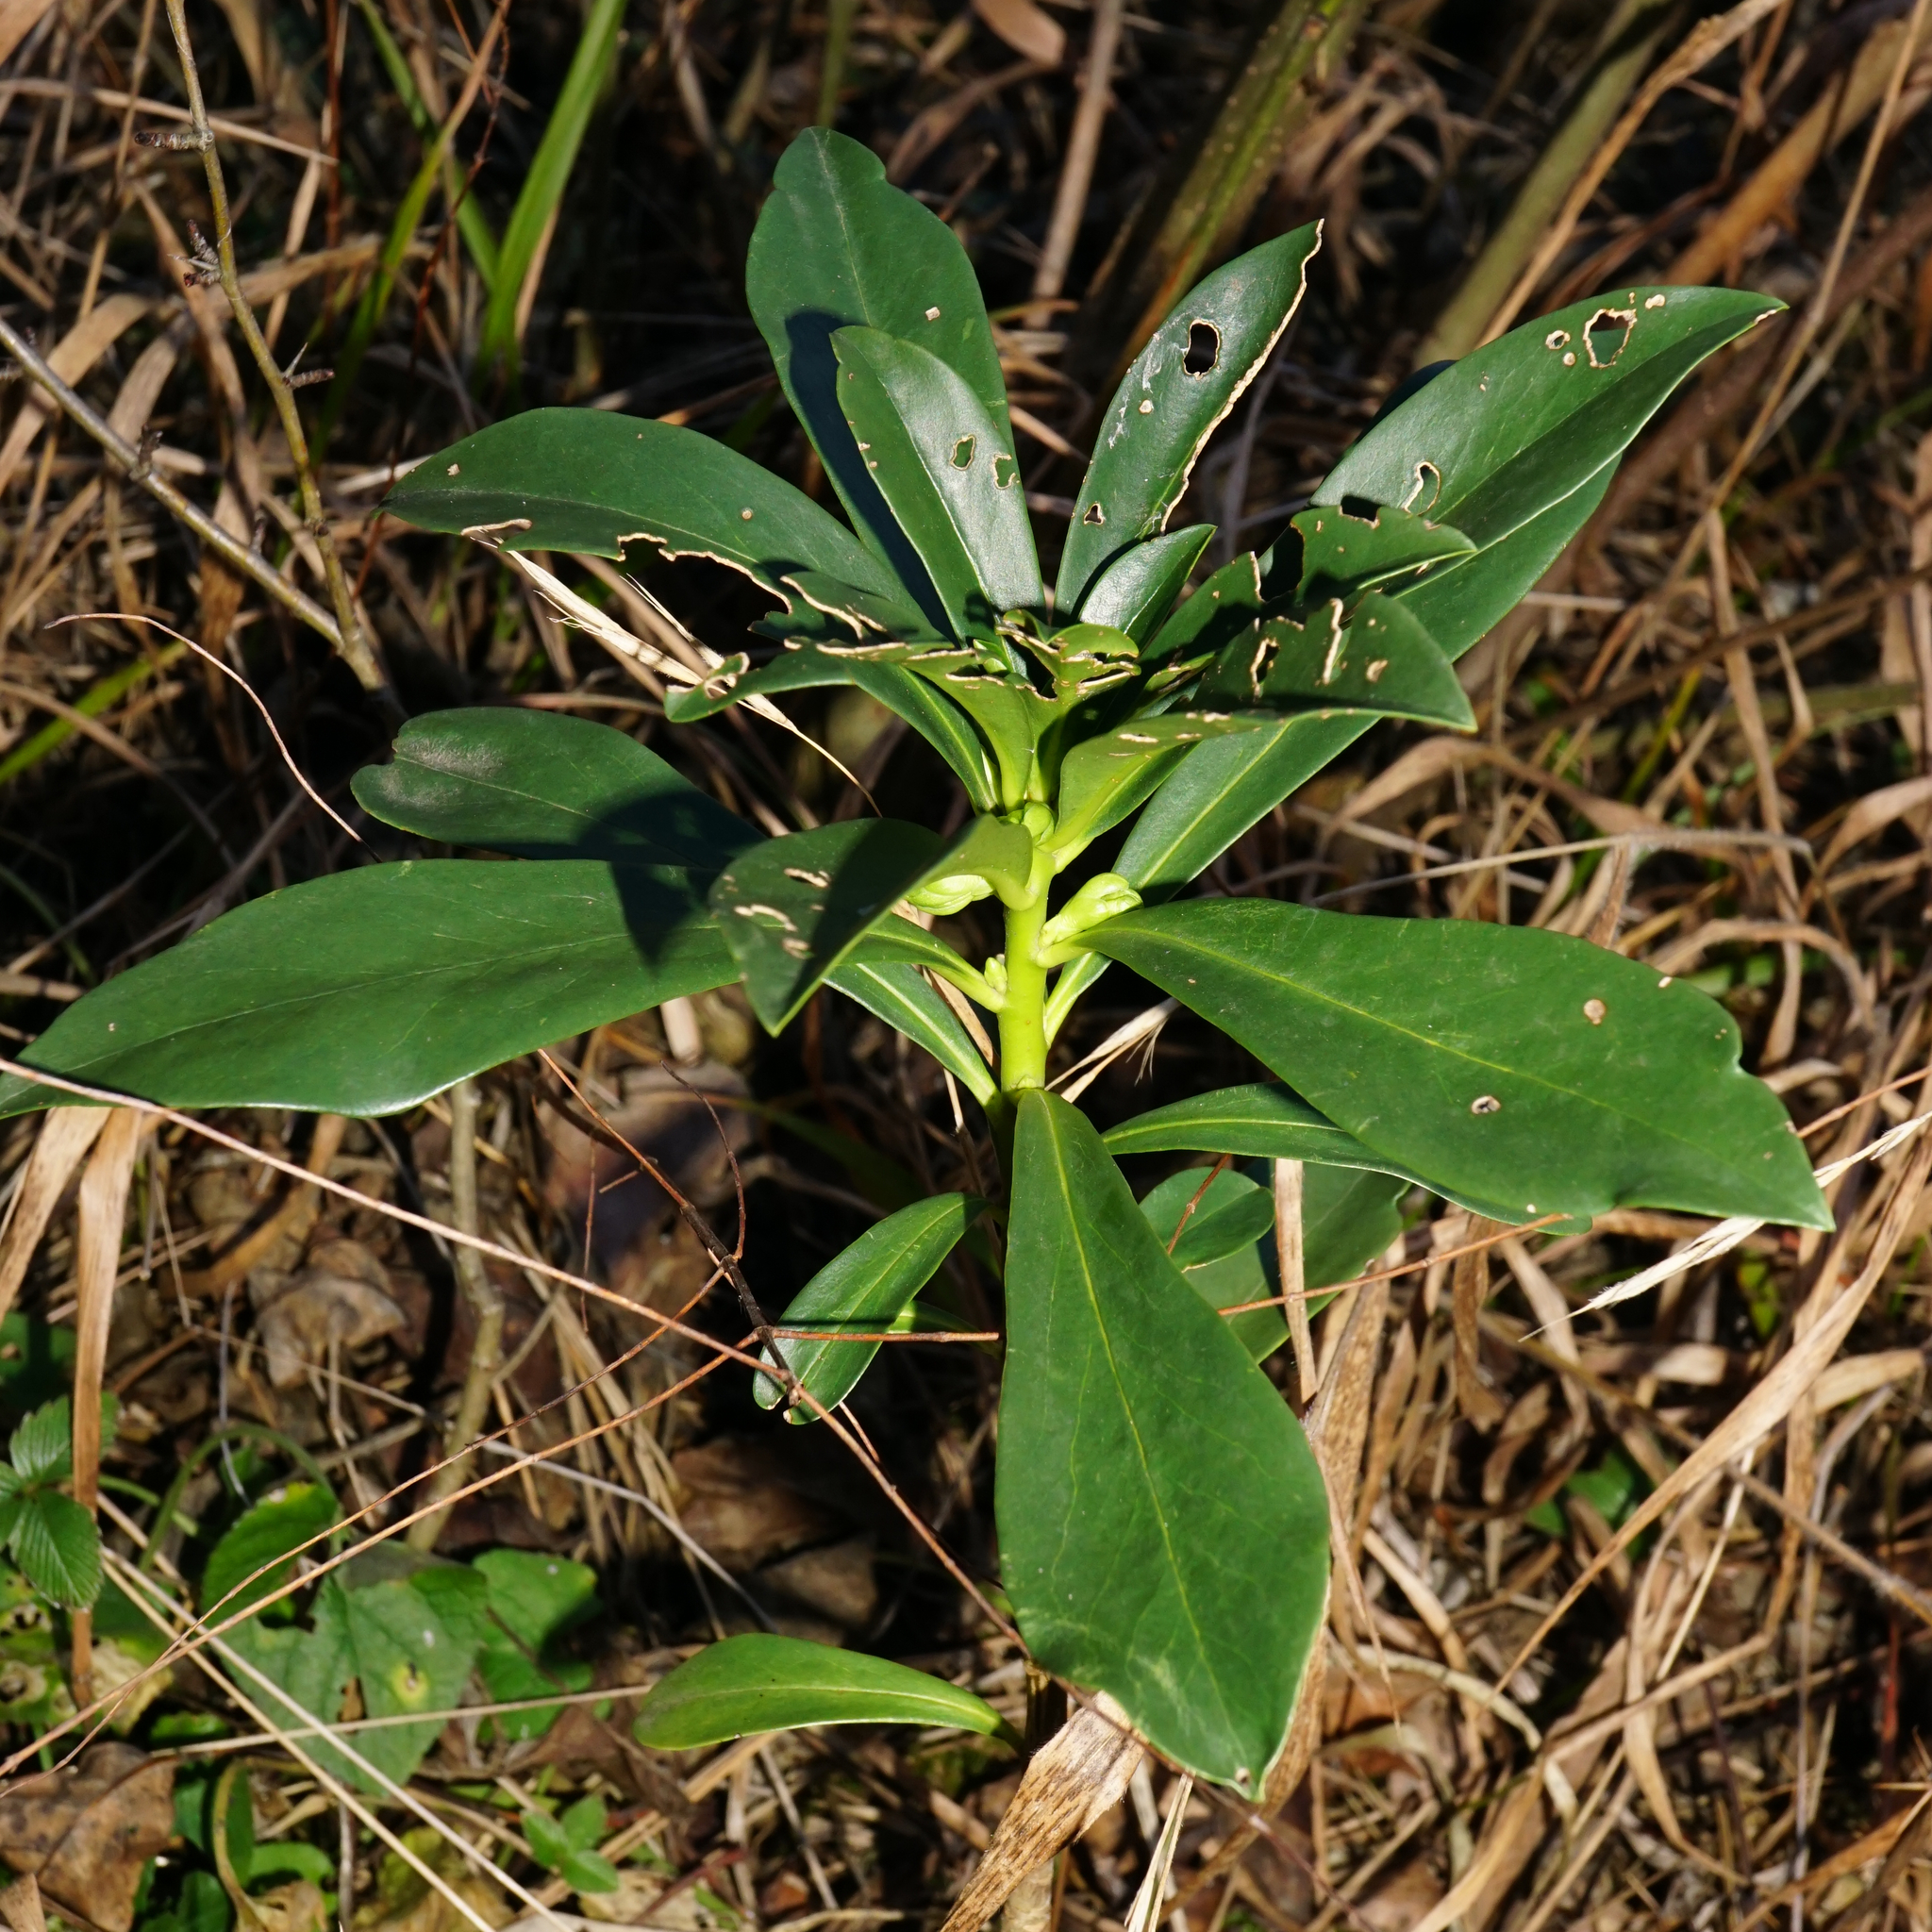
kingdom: Plantae
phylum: Tracheophyta
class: Magnoliopsida
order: Malvales
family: Thymelaeaceae
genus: Daphne
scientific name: Daphne laureola
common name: Spurge-laurel
